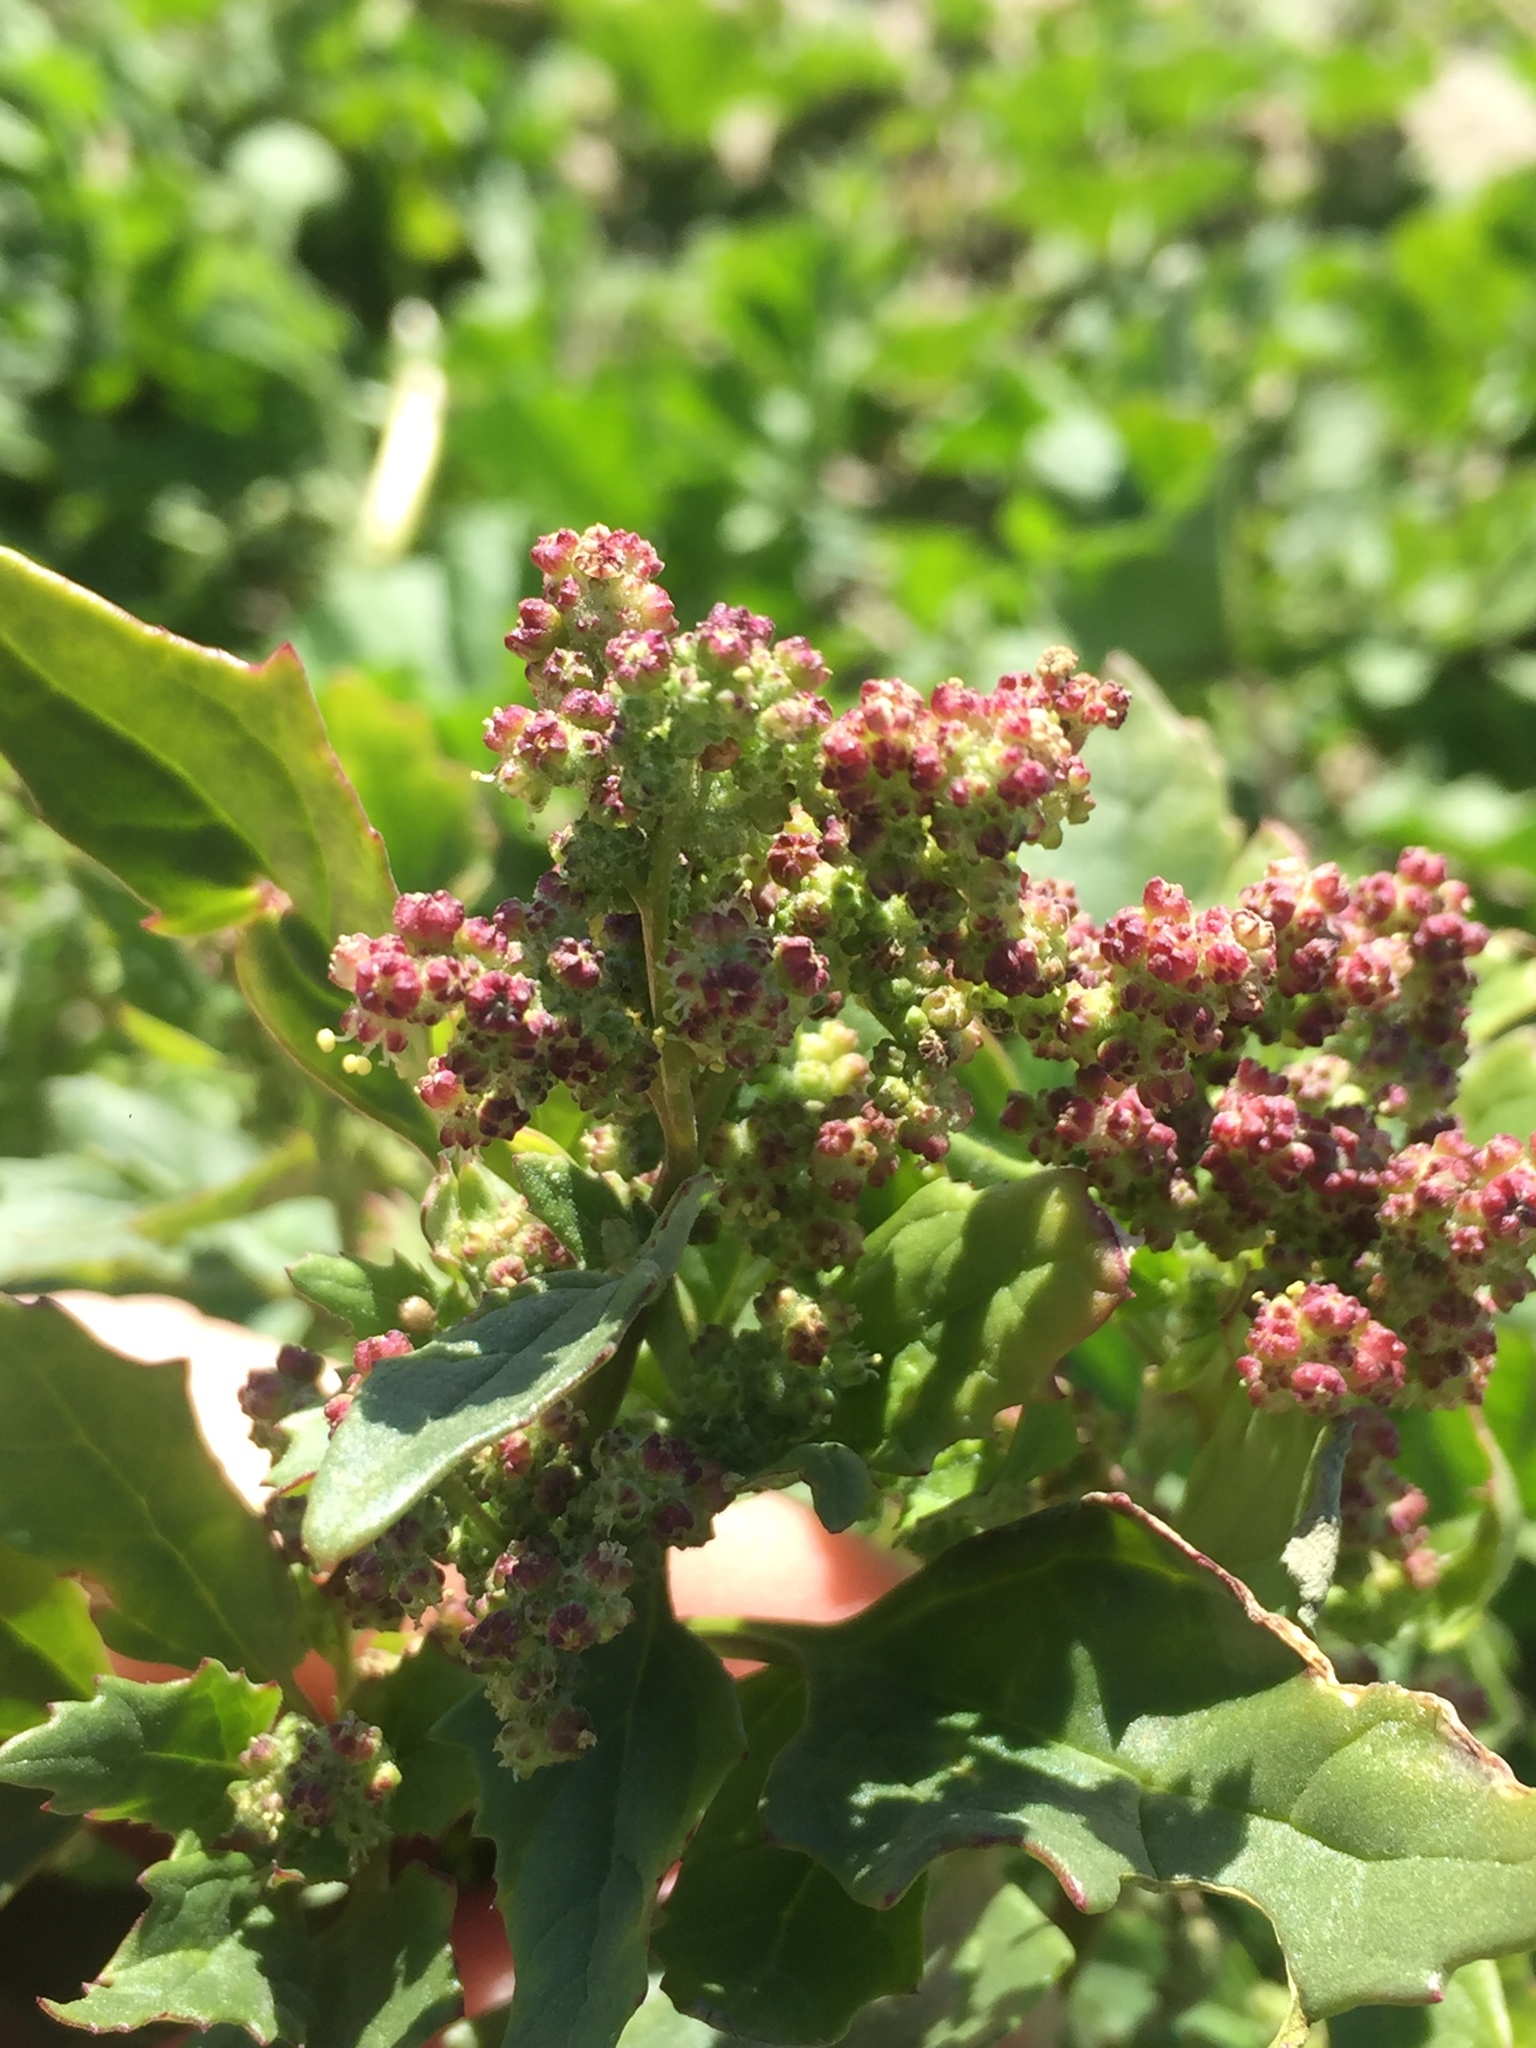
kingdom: Plantae
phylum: Tracheophyta
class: Magnoliopsida
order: Caryophyllales
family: Amaranthaceae
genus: Chenopodiastrum
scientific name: Chenopodiastrum murale
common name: Sowbane
